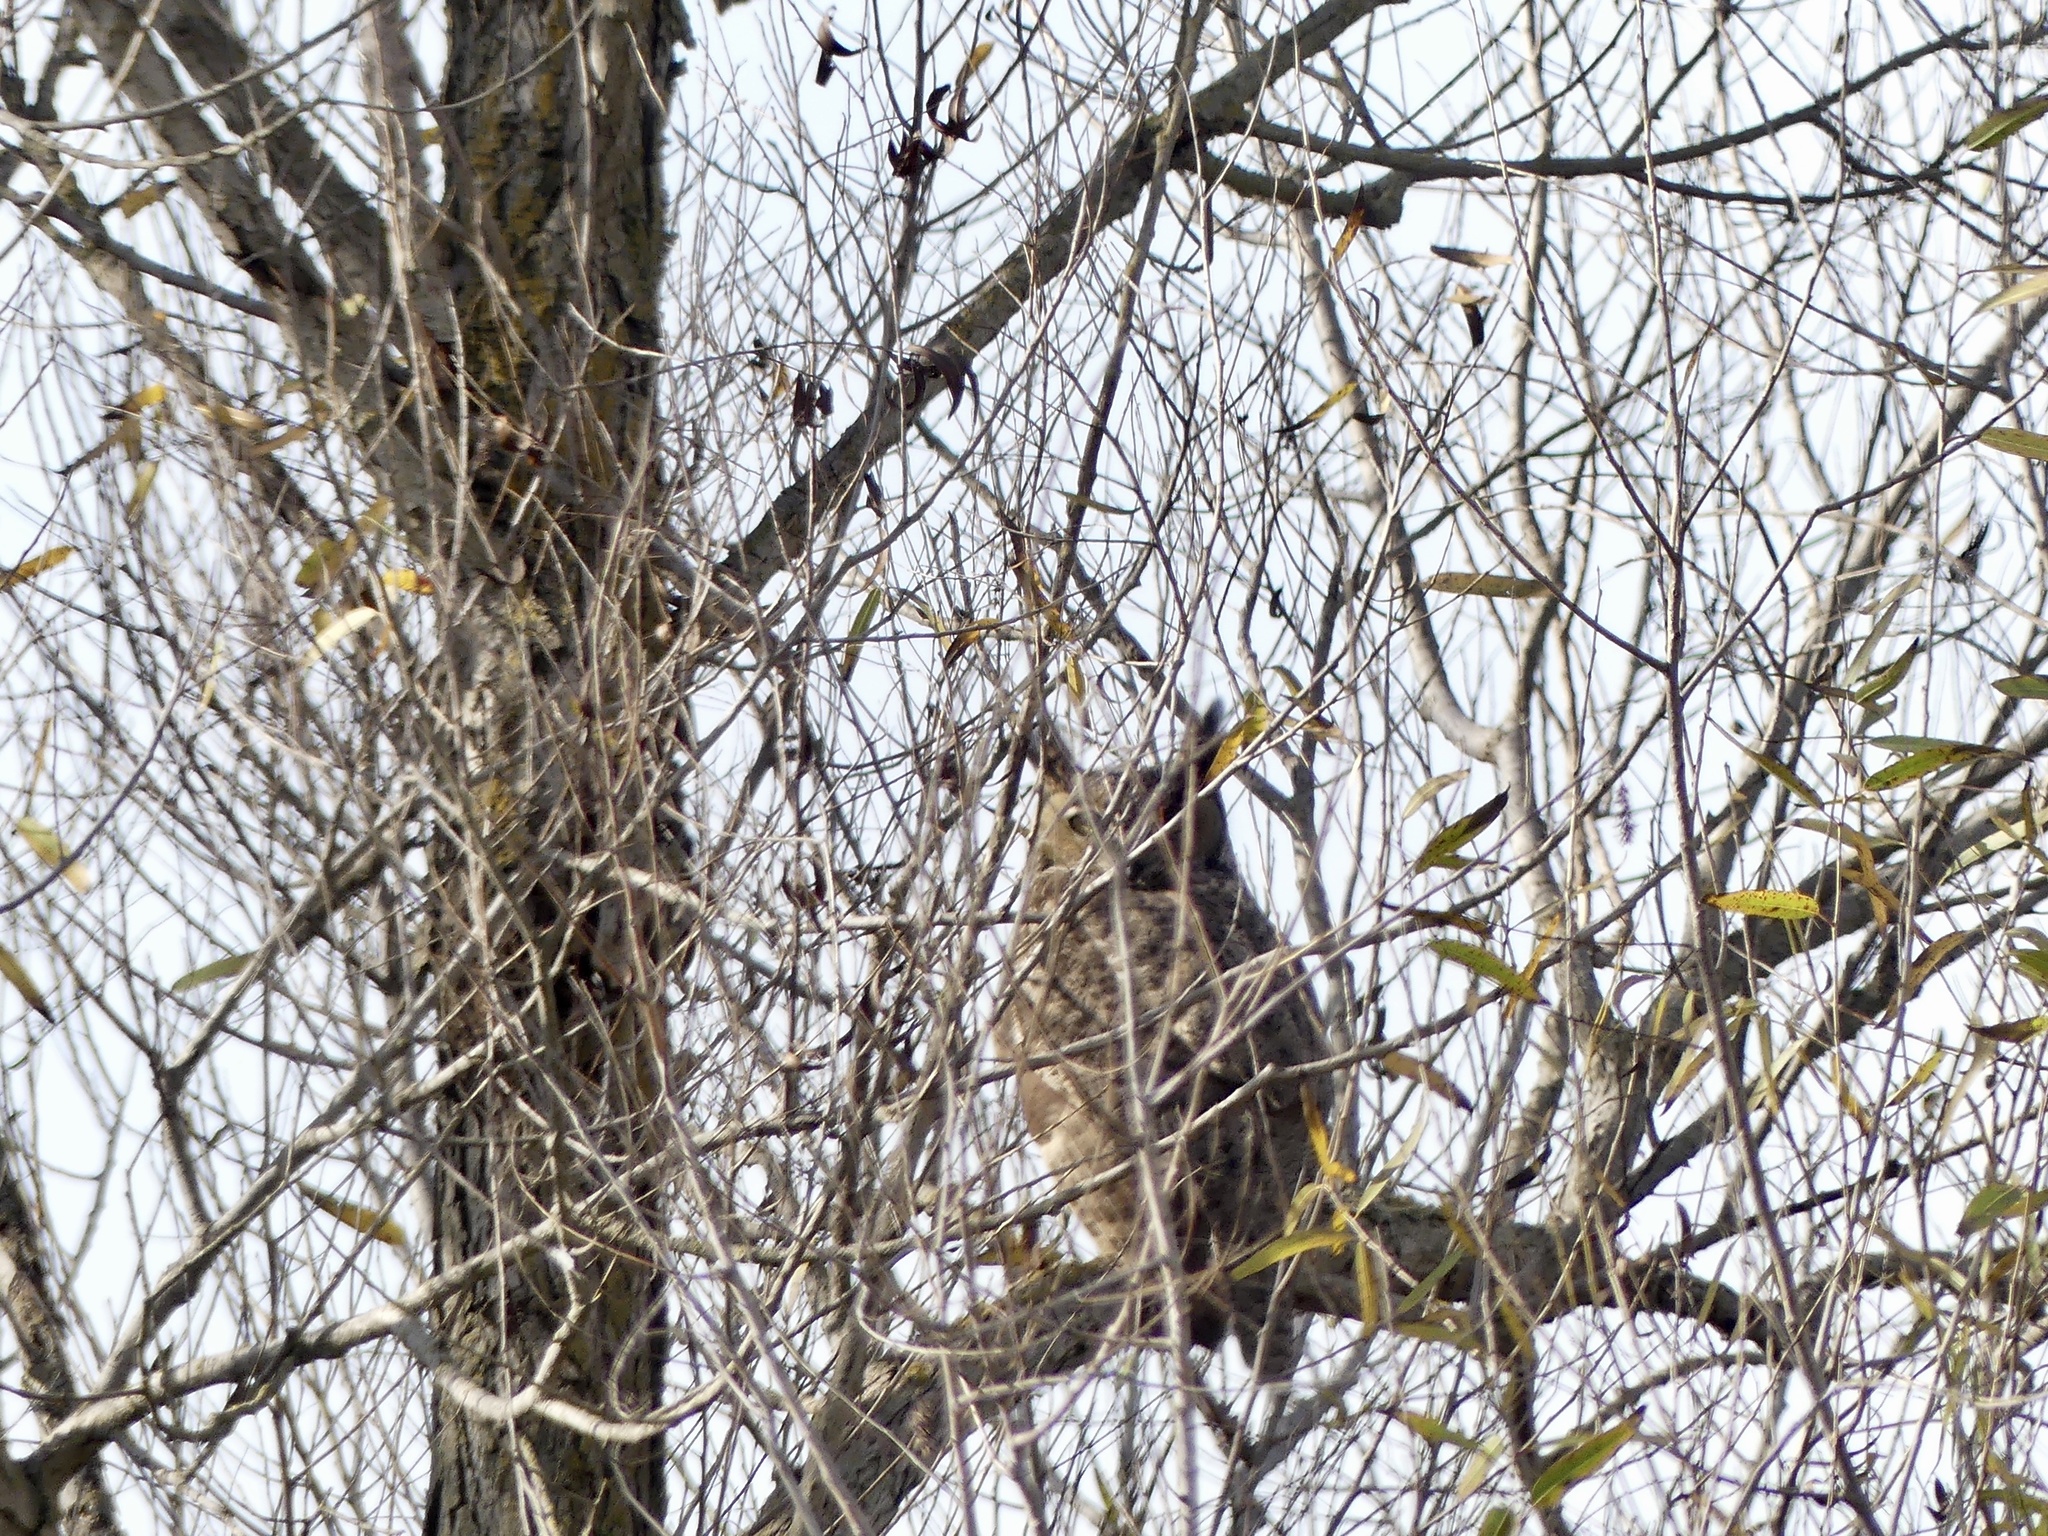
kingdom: Animalia
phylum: Chordata
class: Aves
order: Strigiformes
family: Strigidae
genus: Bubo
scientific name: Bubo virginianus
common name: Great horned owl
